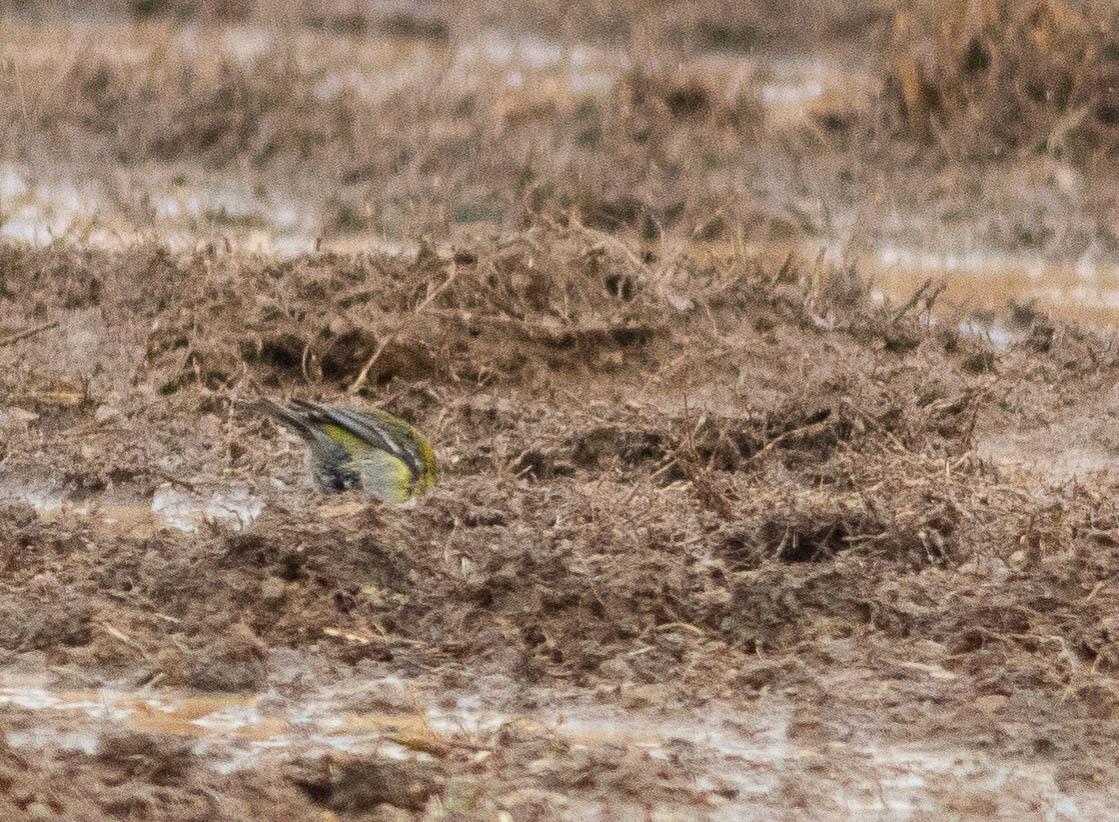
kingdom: Animalia
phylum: Chordata
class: Aves
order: Passeriformes
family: Parulidae
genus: Setophaga
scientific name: Setophaga pinus
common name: Pine warbler
